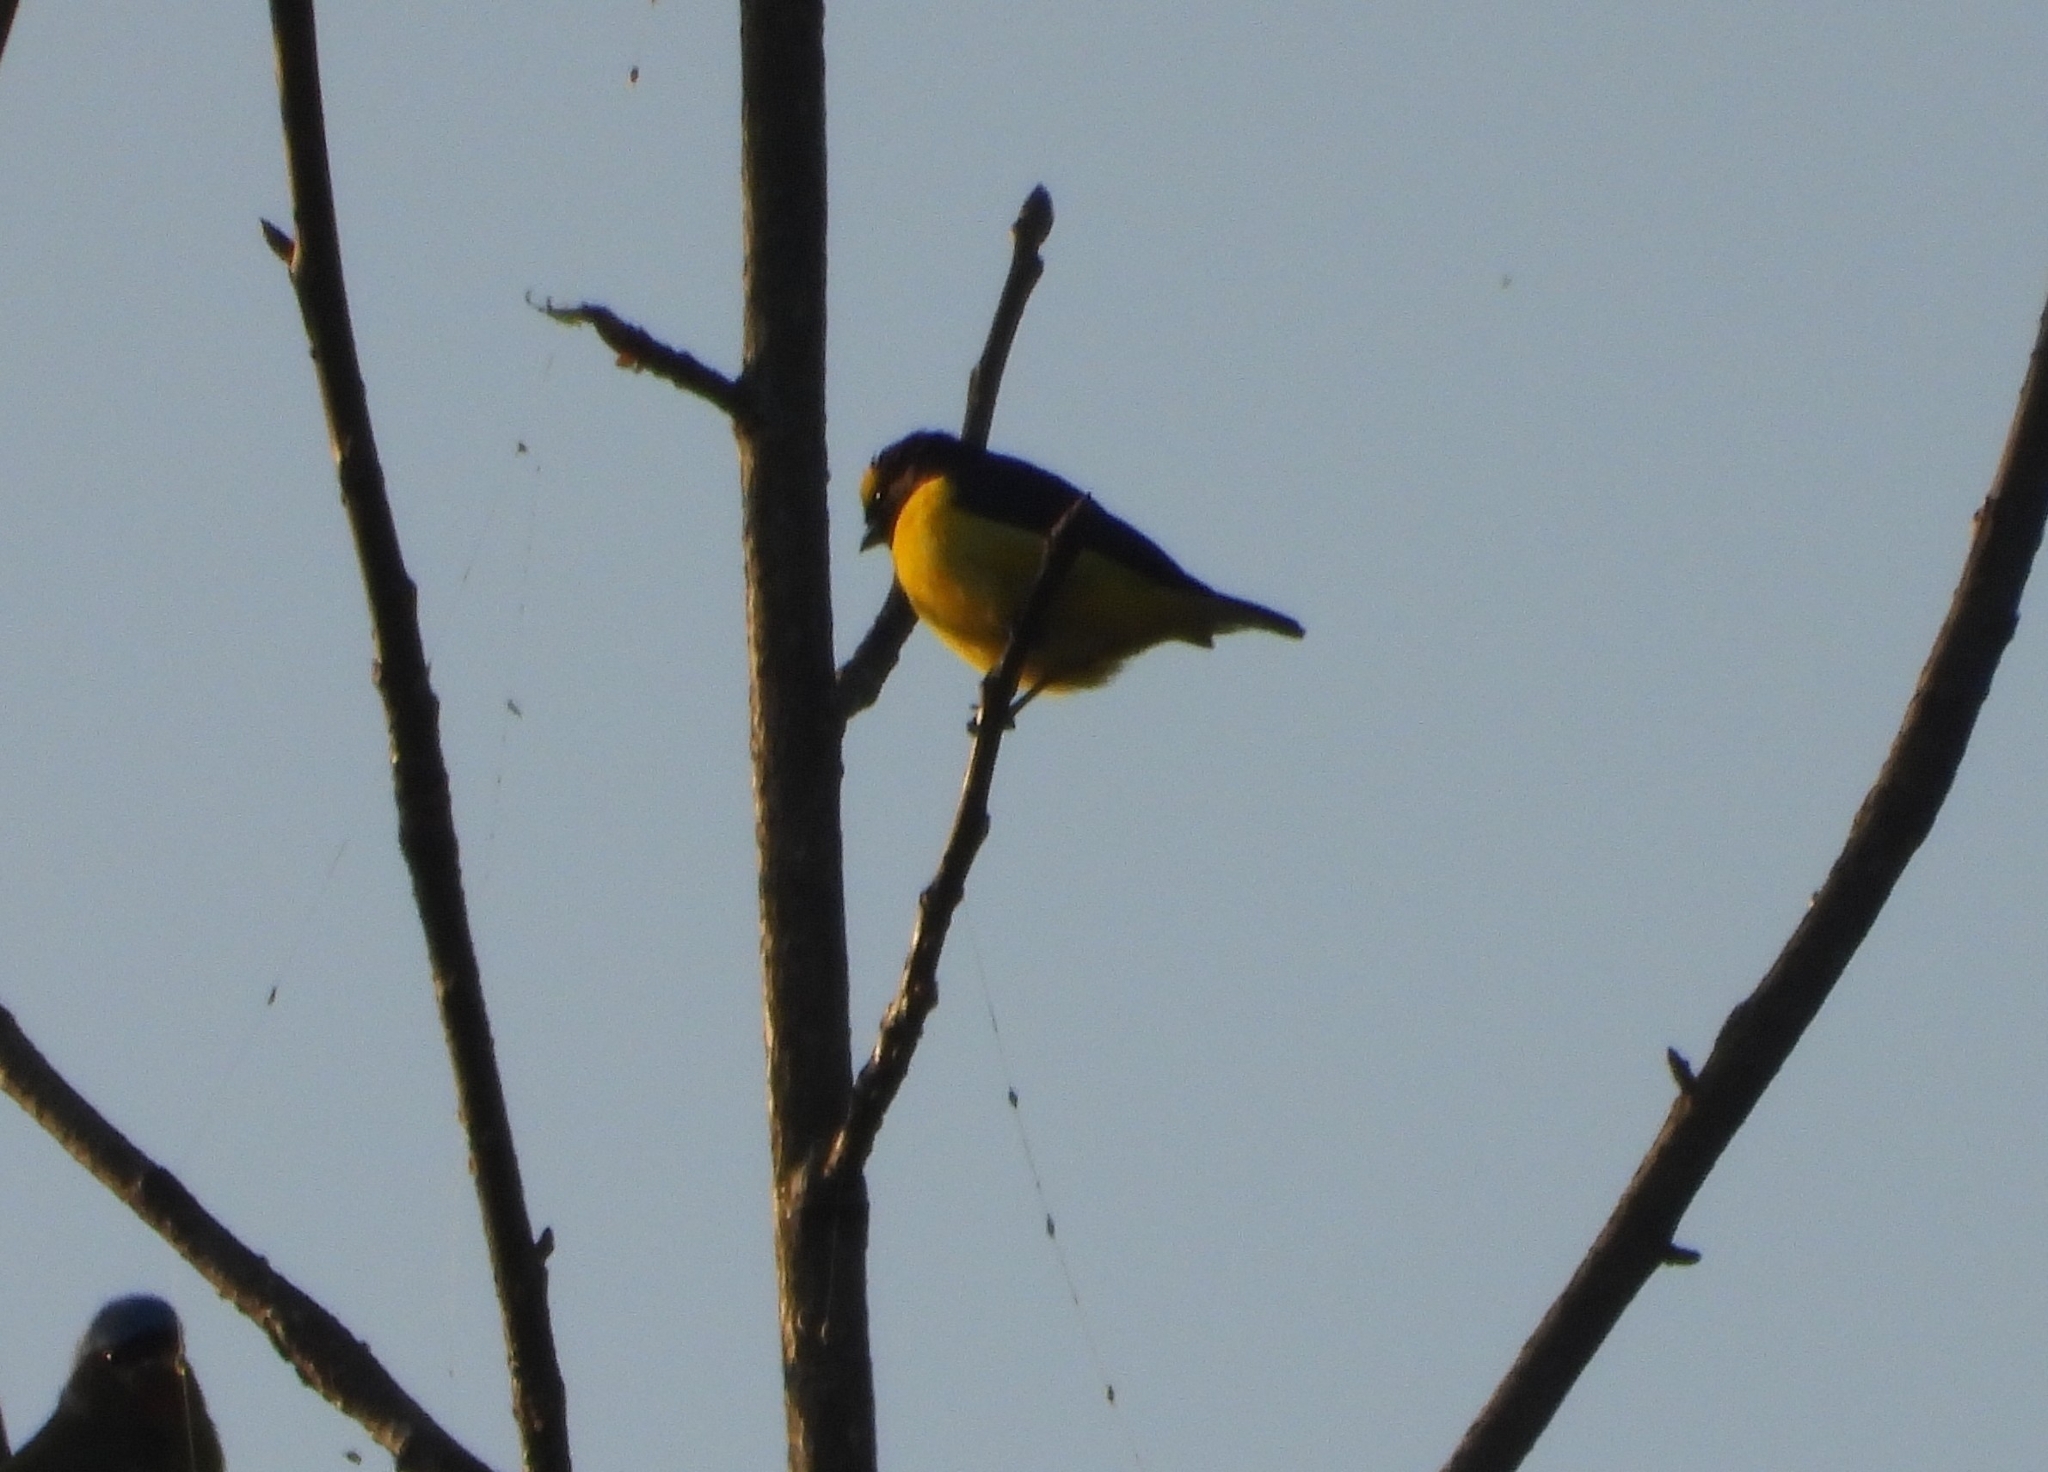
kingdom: Animalia
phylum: Chordata
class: Aves
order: Passeriformes
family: Fringillidae
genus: Euphonia
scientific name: Euphonia affinis
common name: Scrub euphonia
